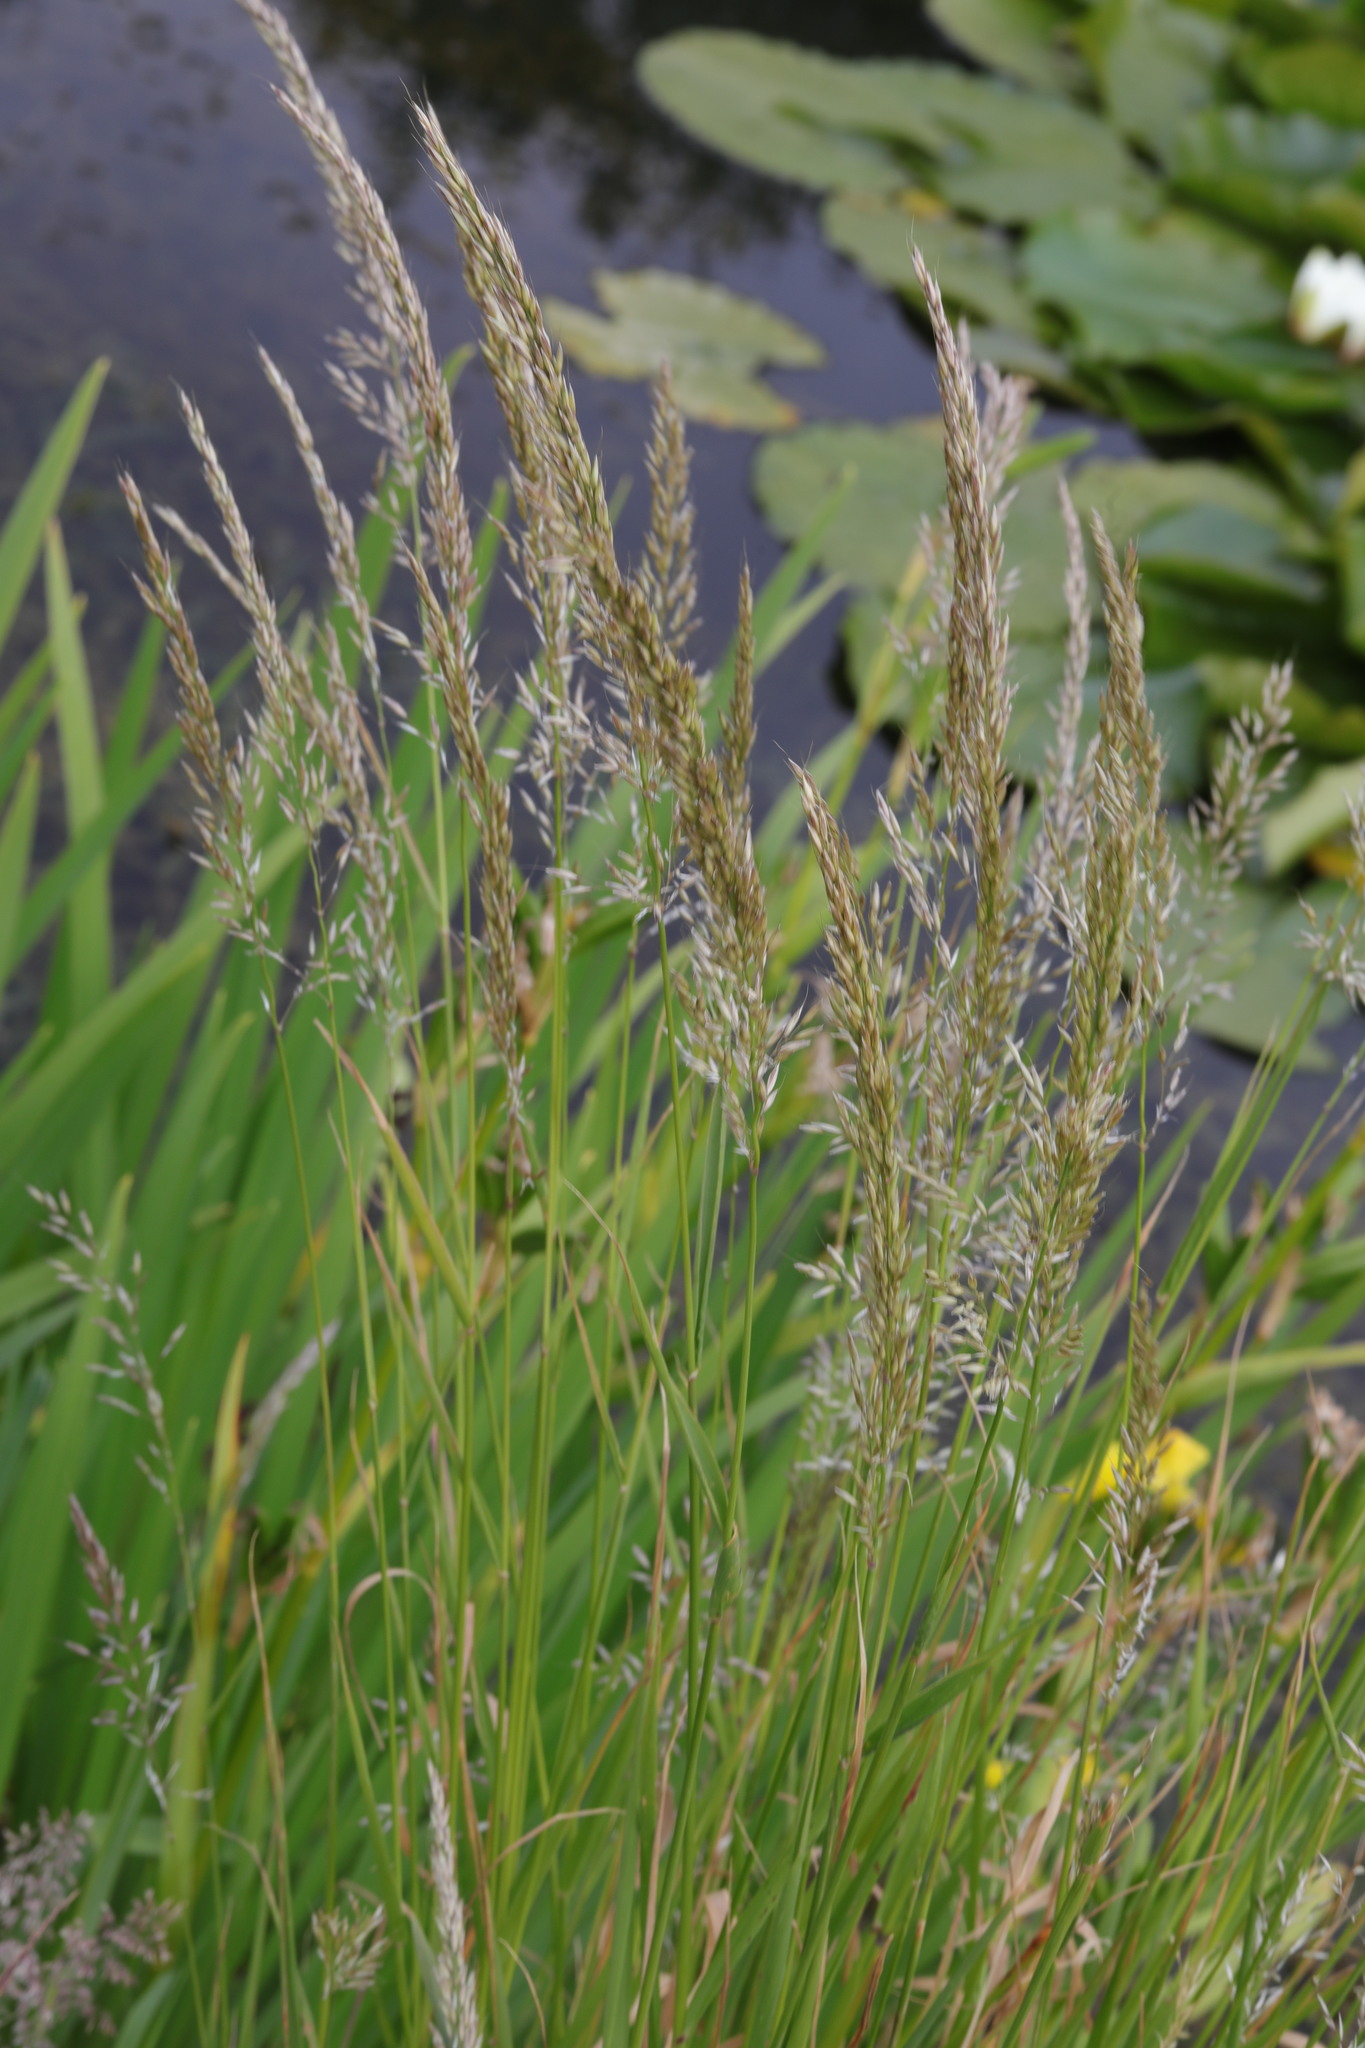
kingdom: Plantae
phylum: Tracheophyta
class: Liliopsida
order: Poales
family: Poaceae
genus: Arrhenatherum
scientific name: Arrhenatherum elatius
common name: Tall oatgrass
